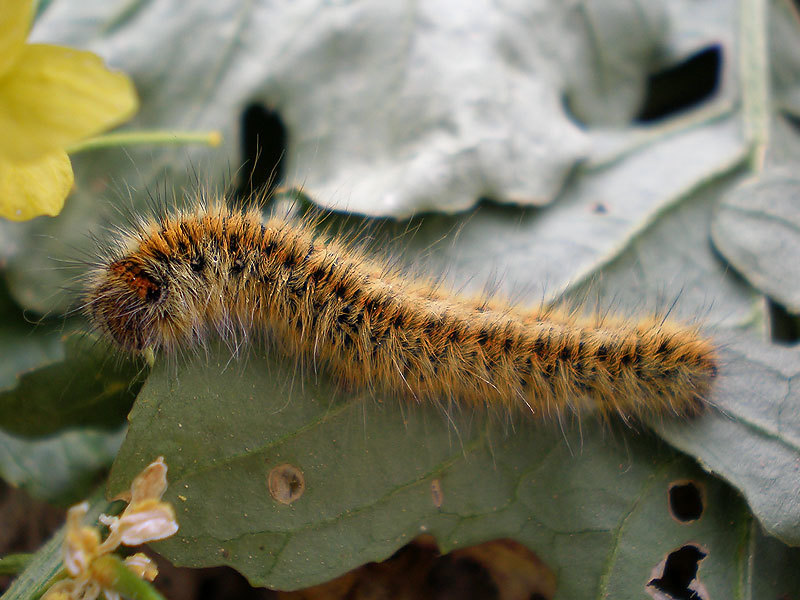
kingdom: Animalia
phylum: Arthropoda
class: Insecta
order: Lepidoptera
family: Lasiocampidae
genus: Lasiocampa
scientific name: Lasiocampa trifolii
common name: Grass eggar
